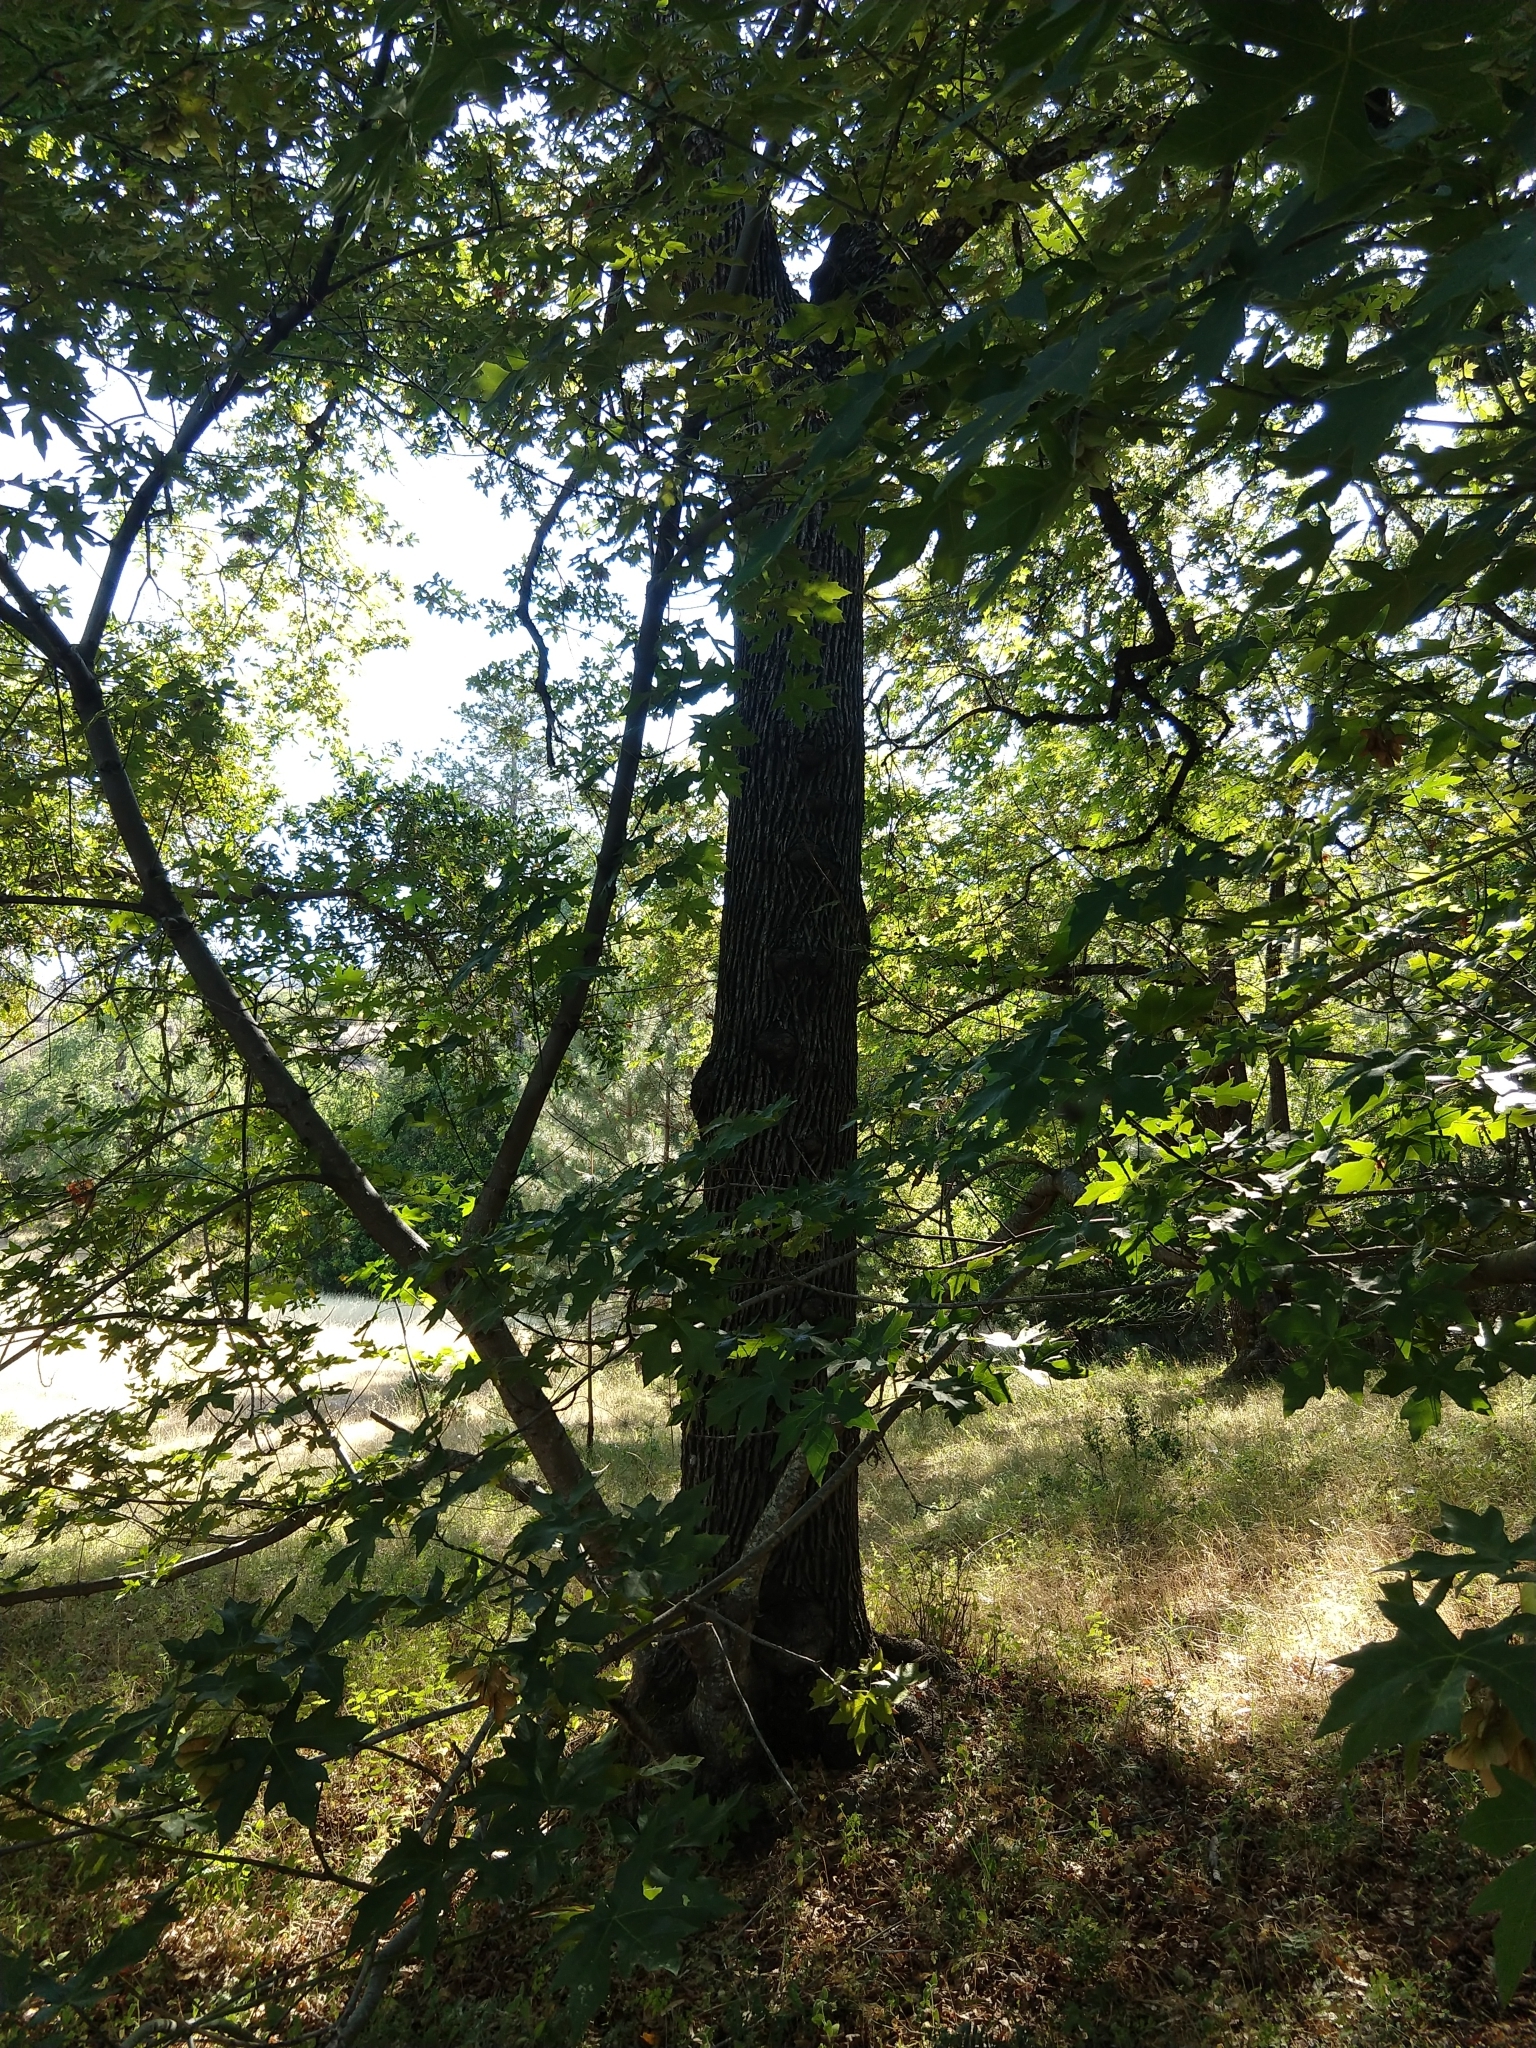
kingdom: Plantae
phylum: Tracheophyta
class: Magnoliopsida
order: Sapindales
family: Sapindaceae
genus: Acer
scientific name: Acer macrophyllum
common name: Oregon maple
